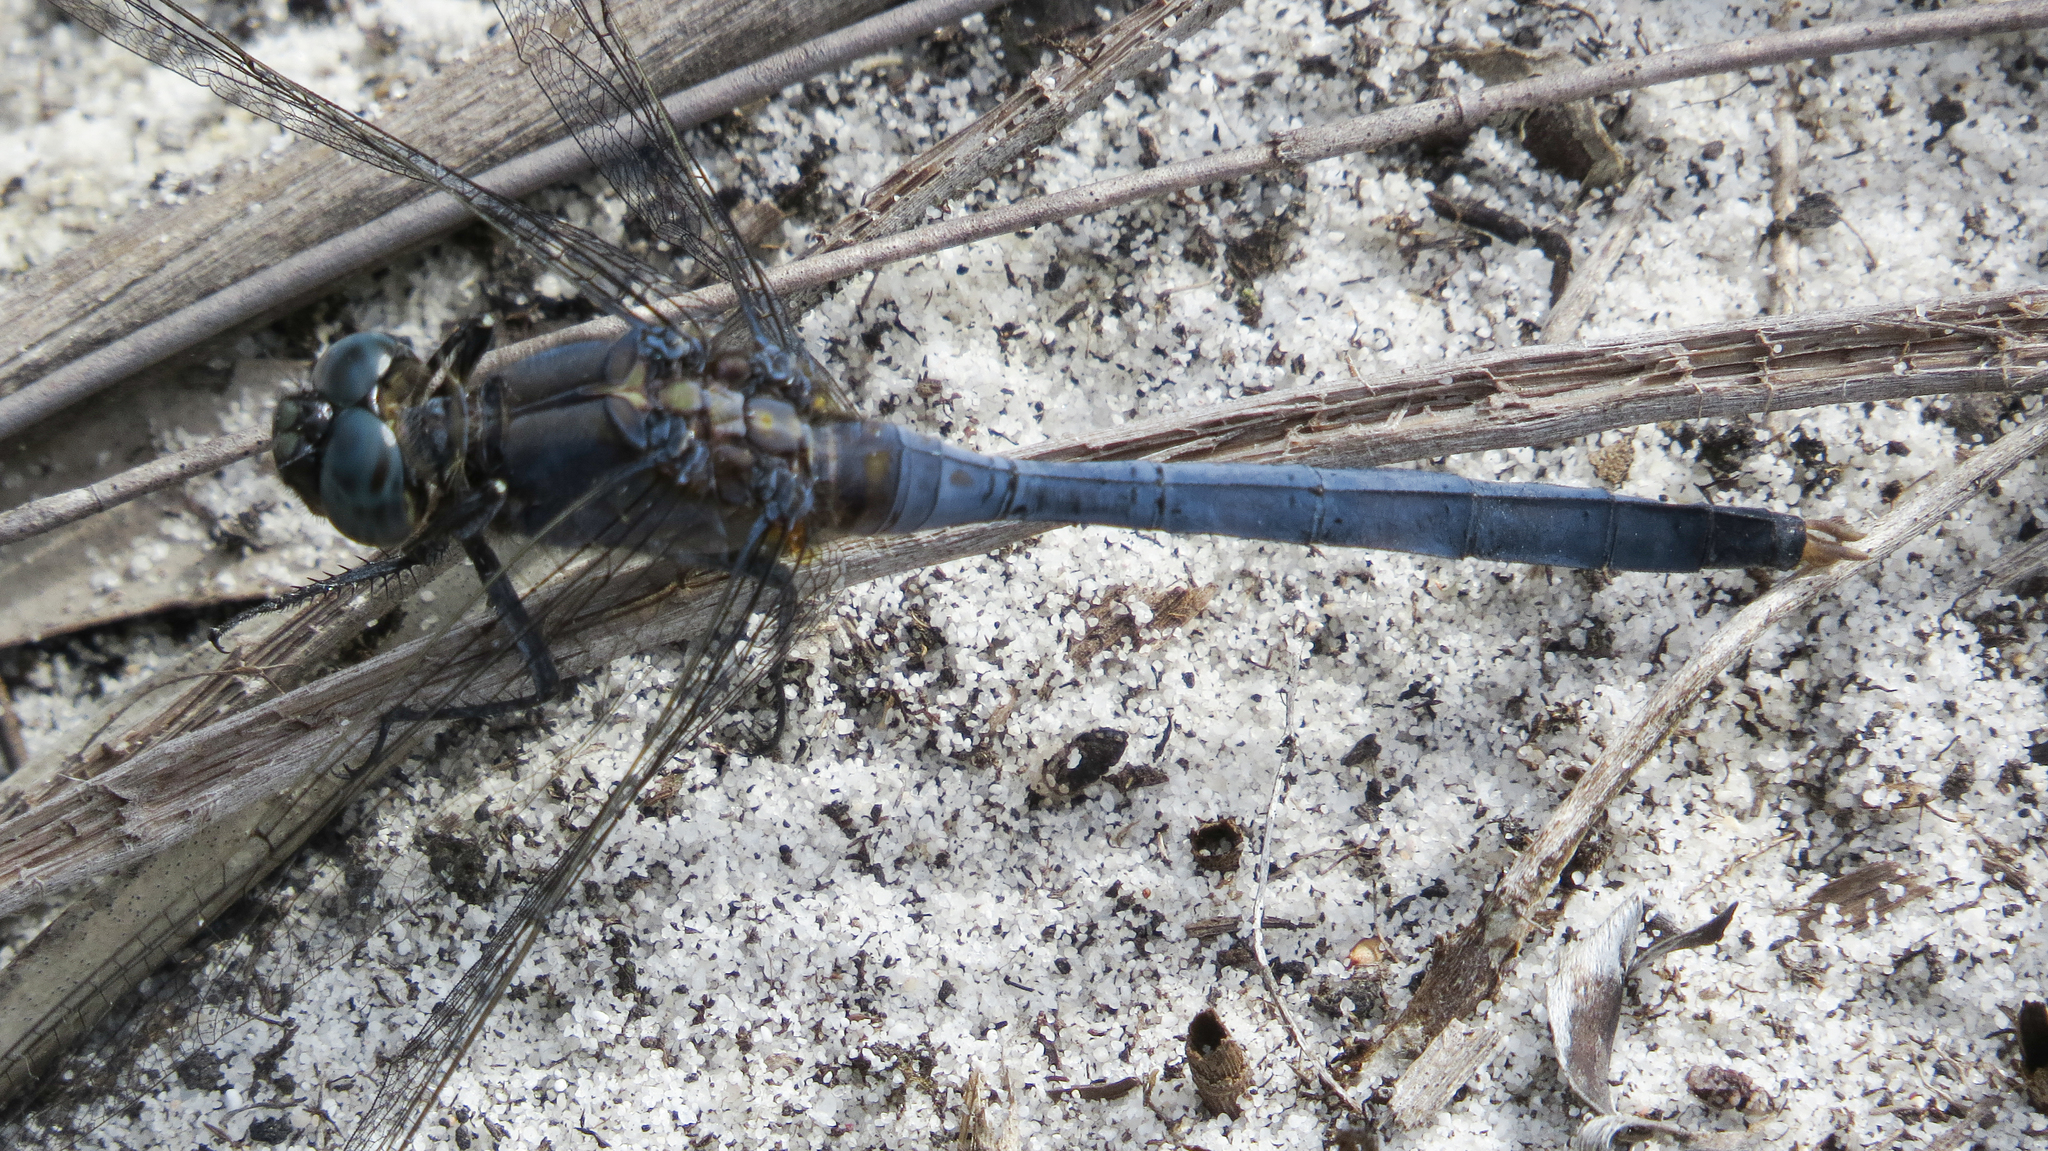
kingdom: Animalia
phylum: Arthropoda
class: Insecta
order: Odonata
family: Libellulidae
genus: Orthetrum
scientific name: Orthetrum boumiera
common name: Brownwater skimmer
